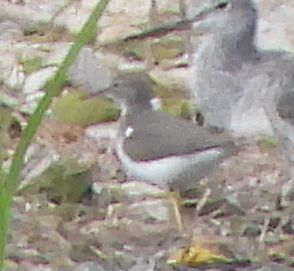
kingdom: Animalia
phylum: Chordata
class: Aves
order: Charadriiformes
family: Scolopacidae
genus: Actitis
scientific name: Actitis macularius
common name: Spotted sandpiper
